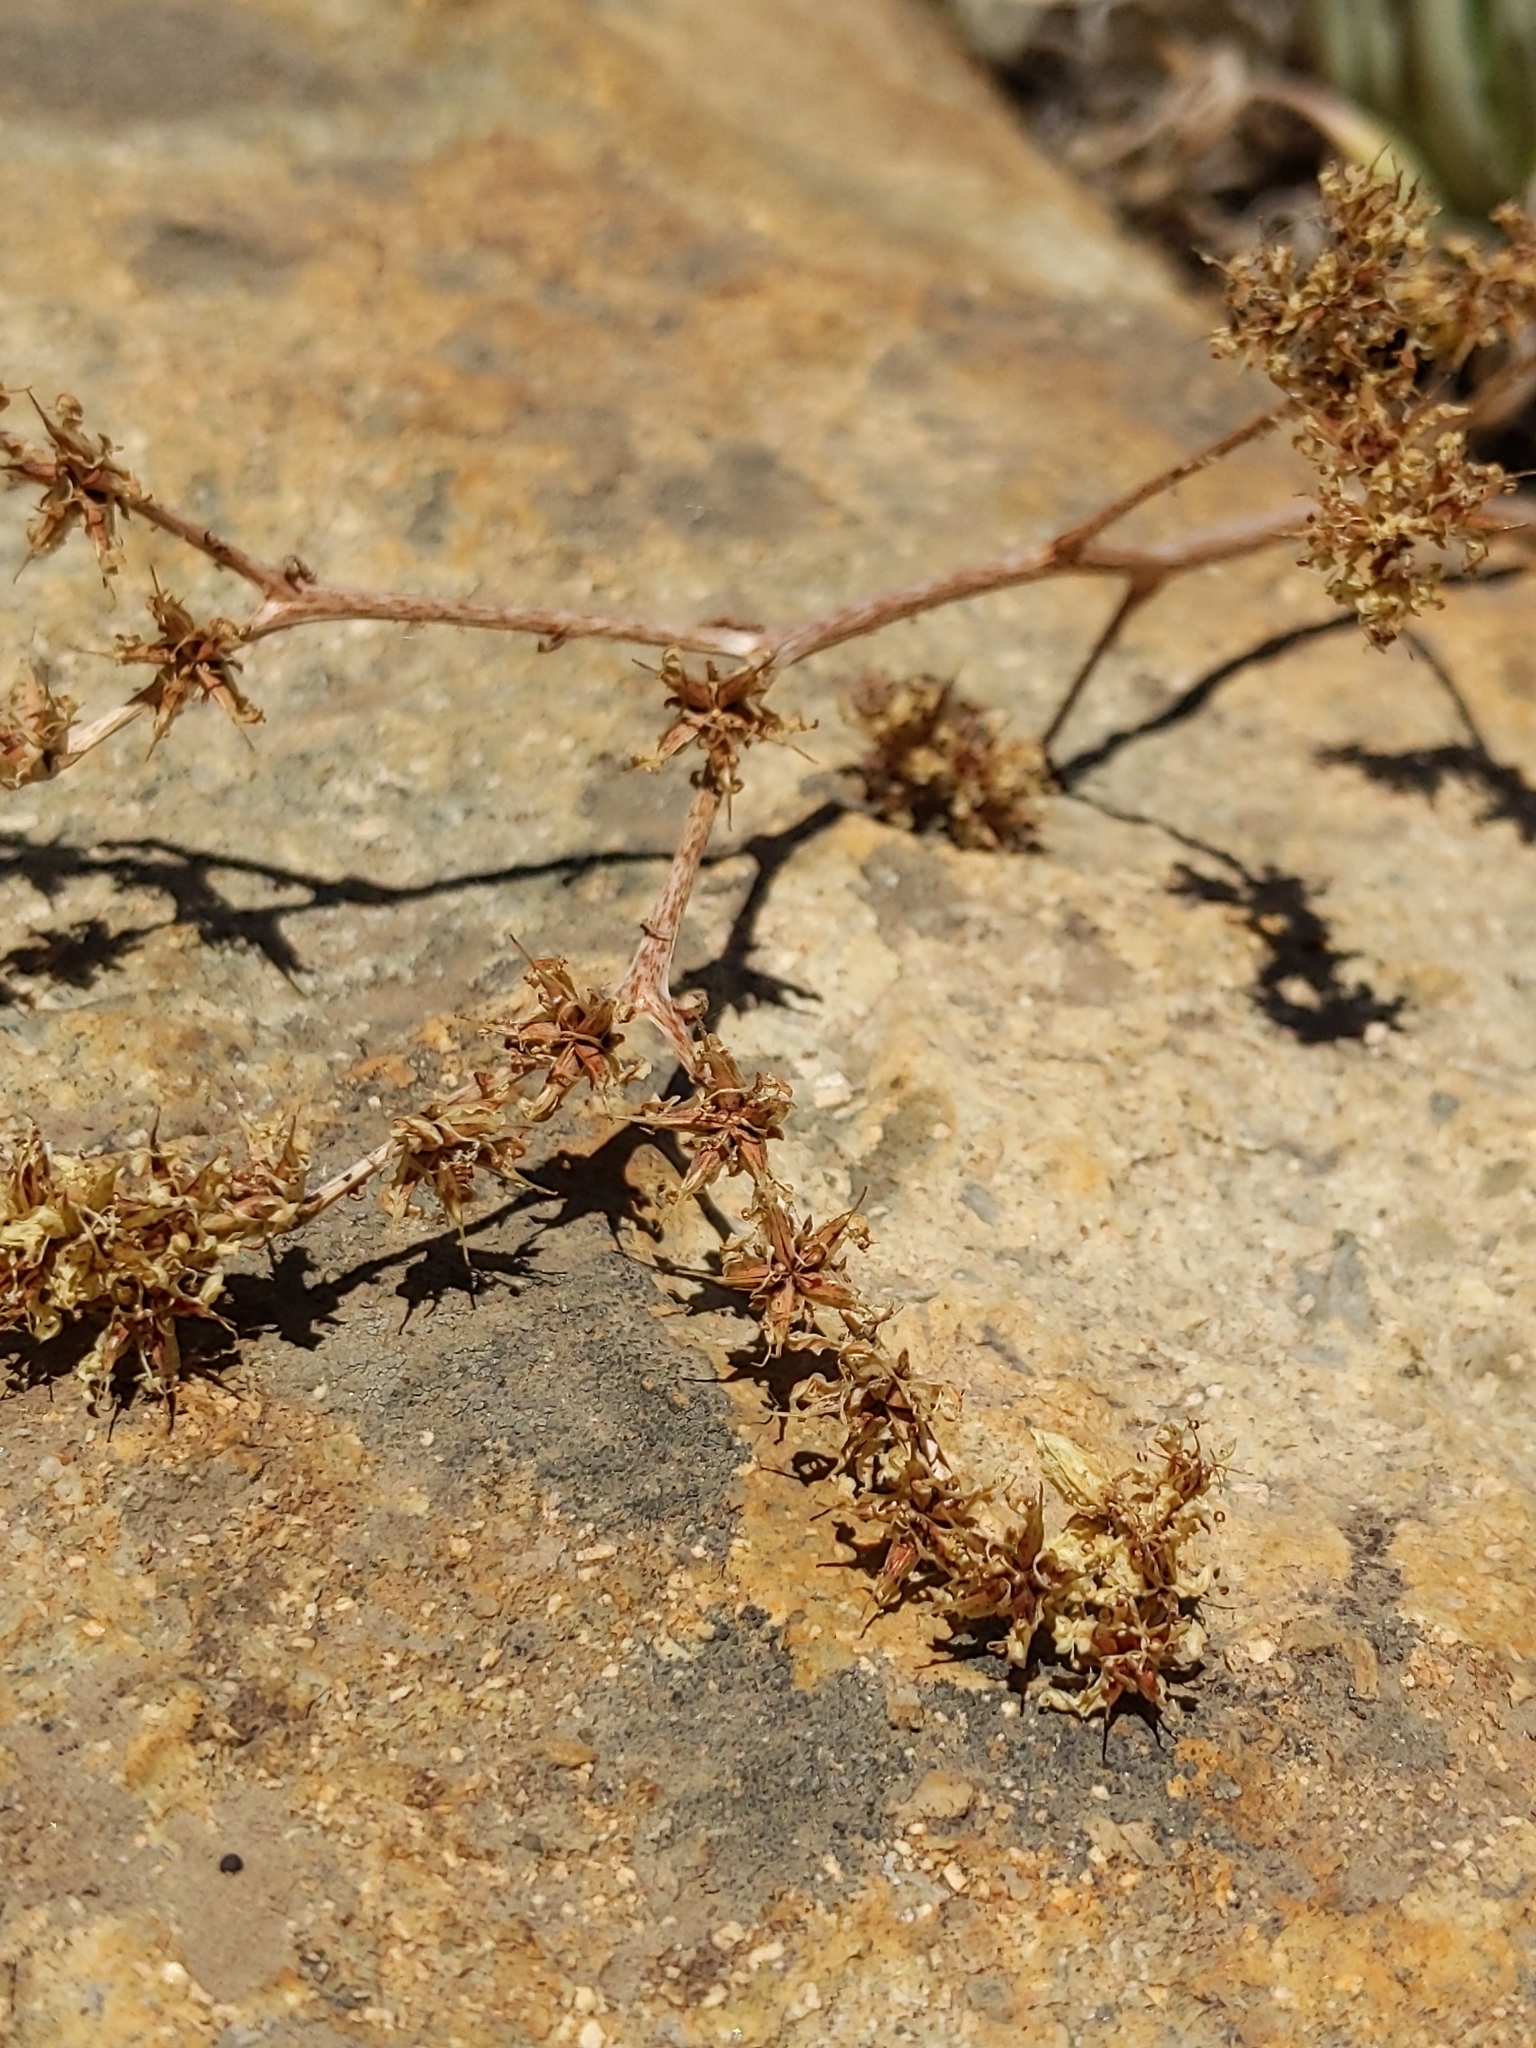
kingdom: Plantae
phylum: Tracheophyta
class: Magnoliopsida
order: Saxifragales
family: Crassulaceae
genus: Dudleya
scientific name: Dudleya edulis
